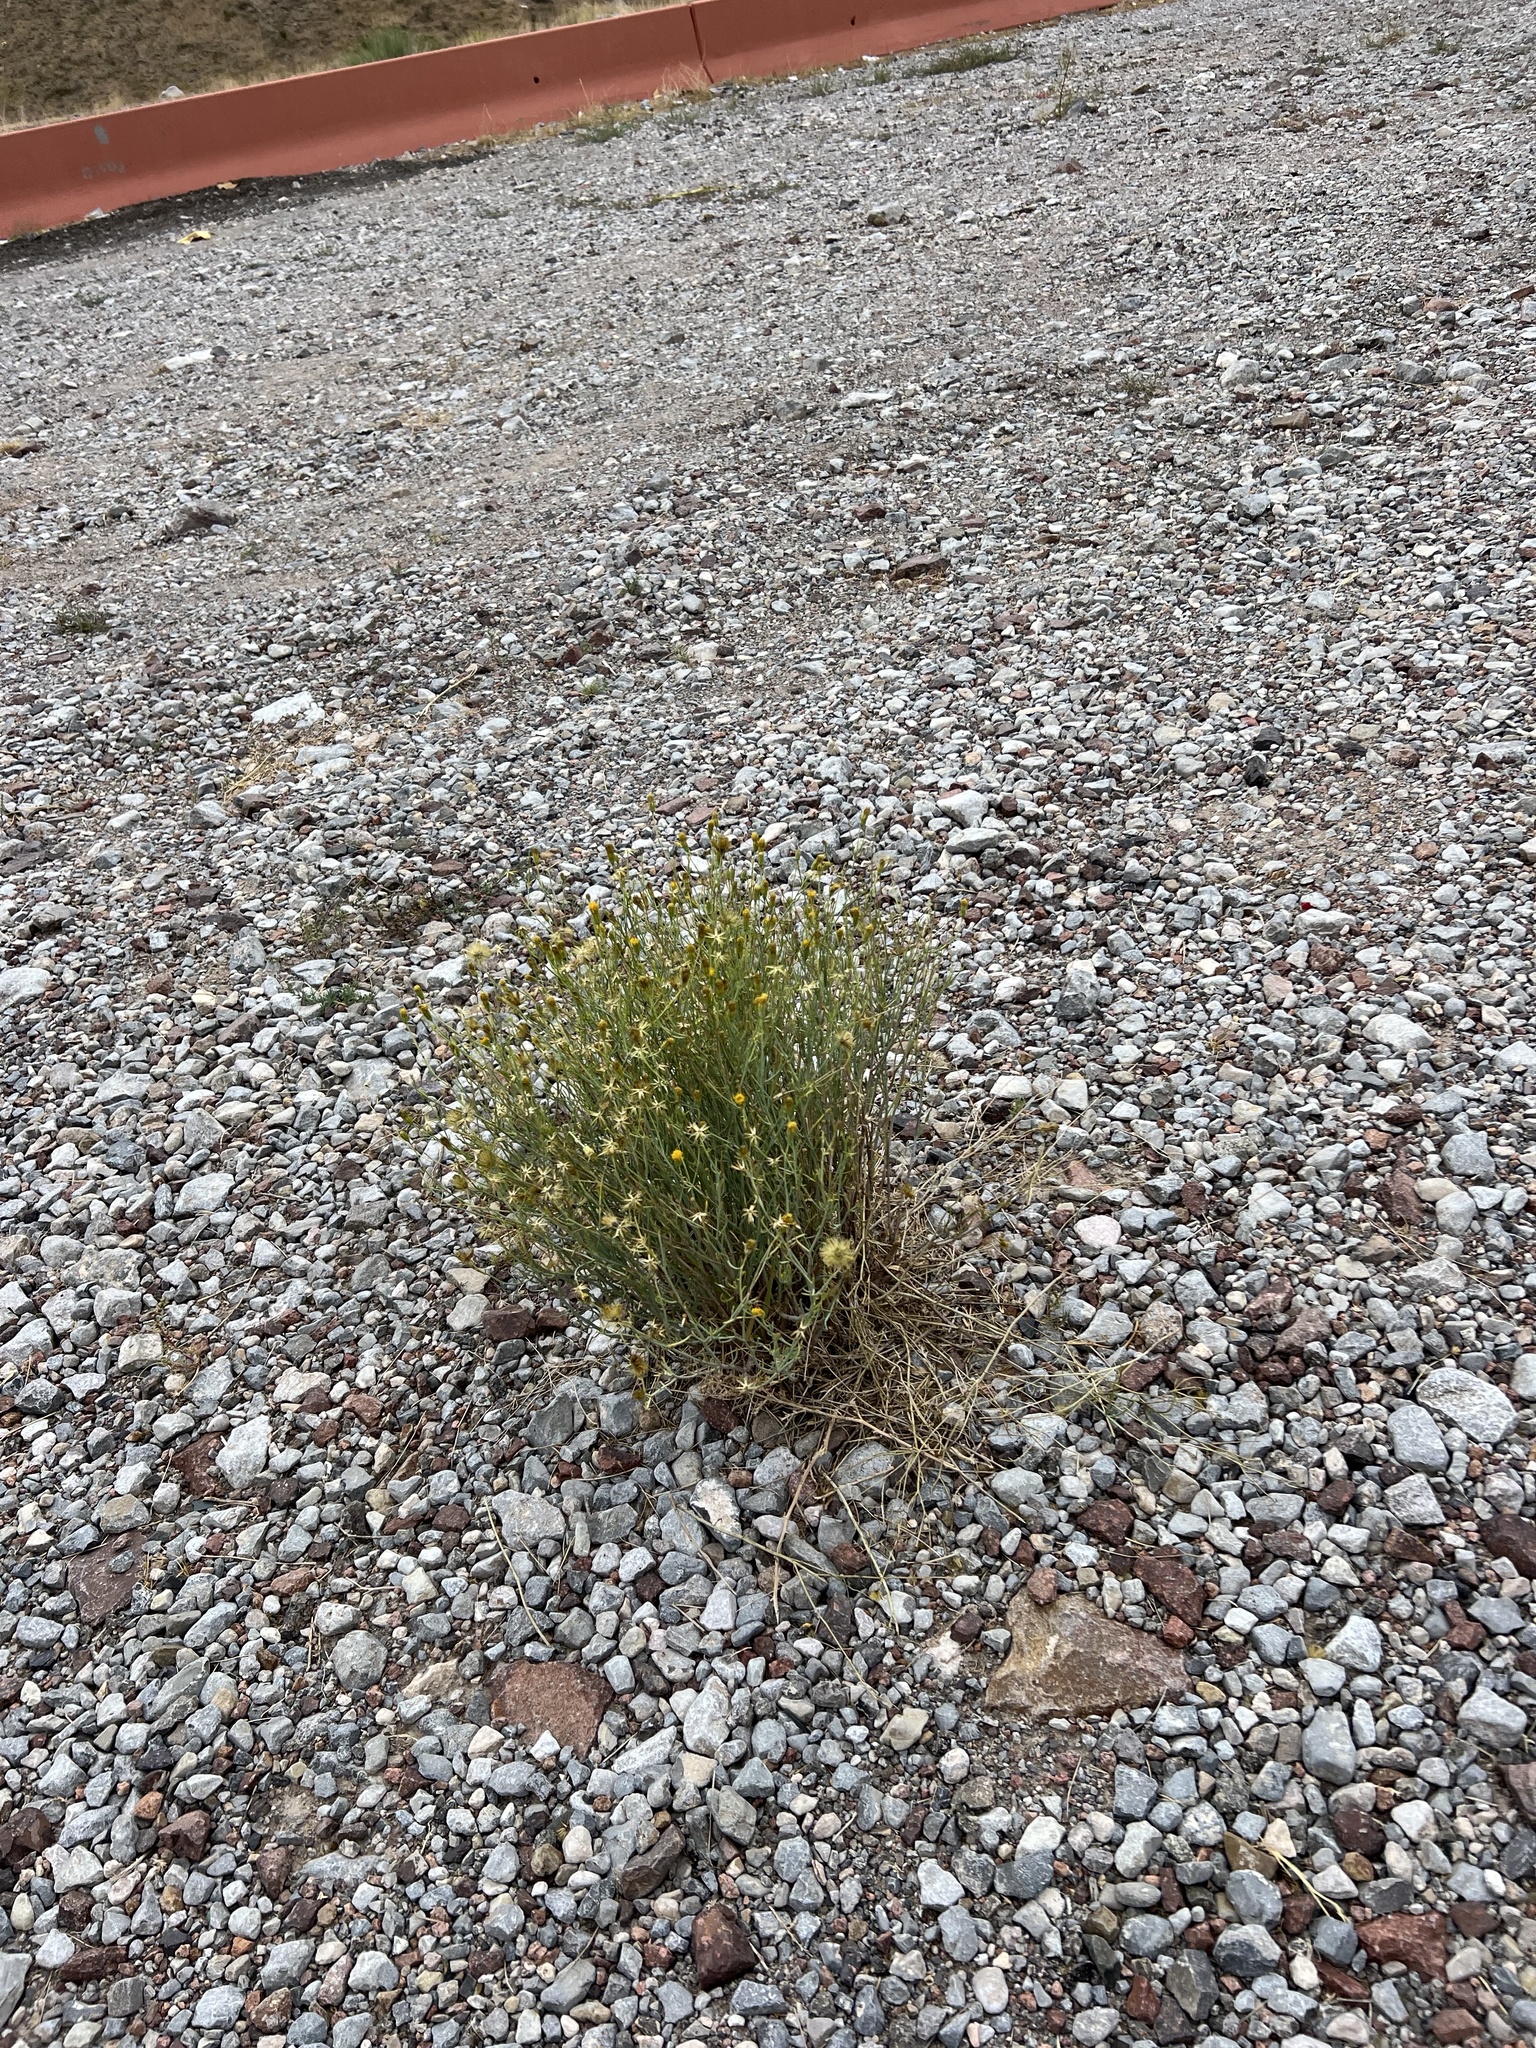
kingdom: Plantae
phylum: Tracheophyta
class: Magnoliopsida
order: Asterales
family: Asteraceae
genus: Porophyllum
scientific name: Porophyllum scoparium
